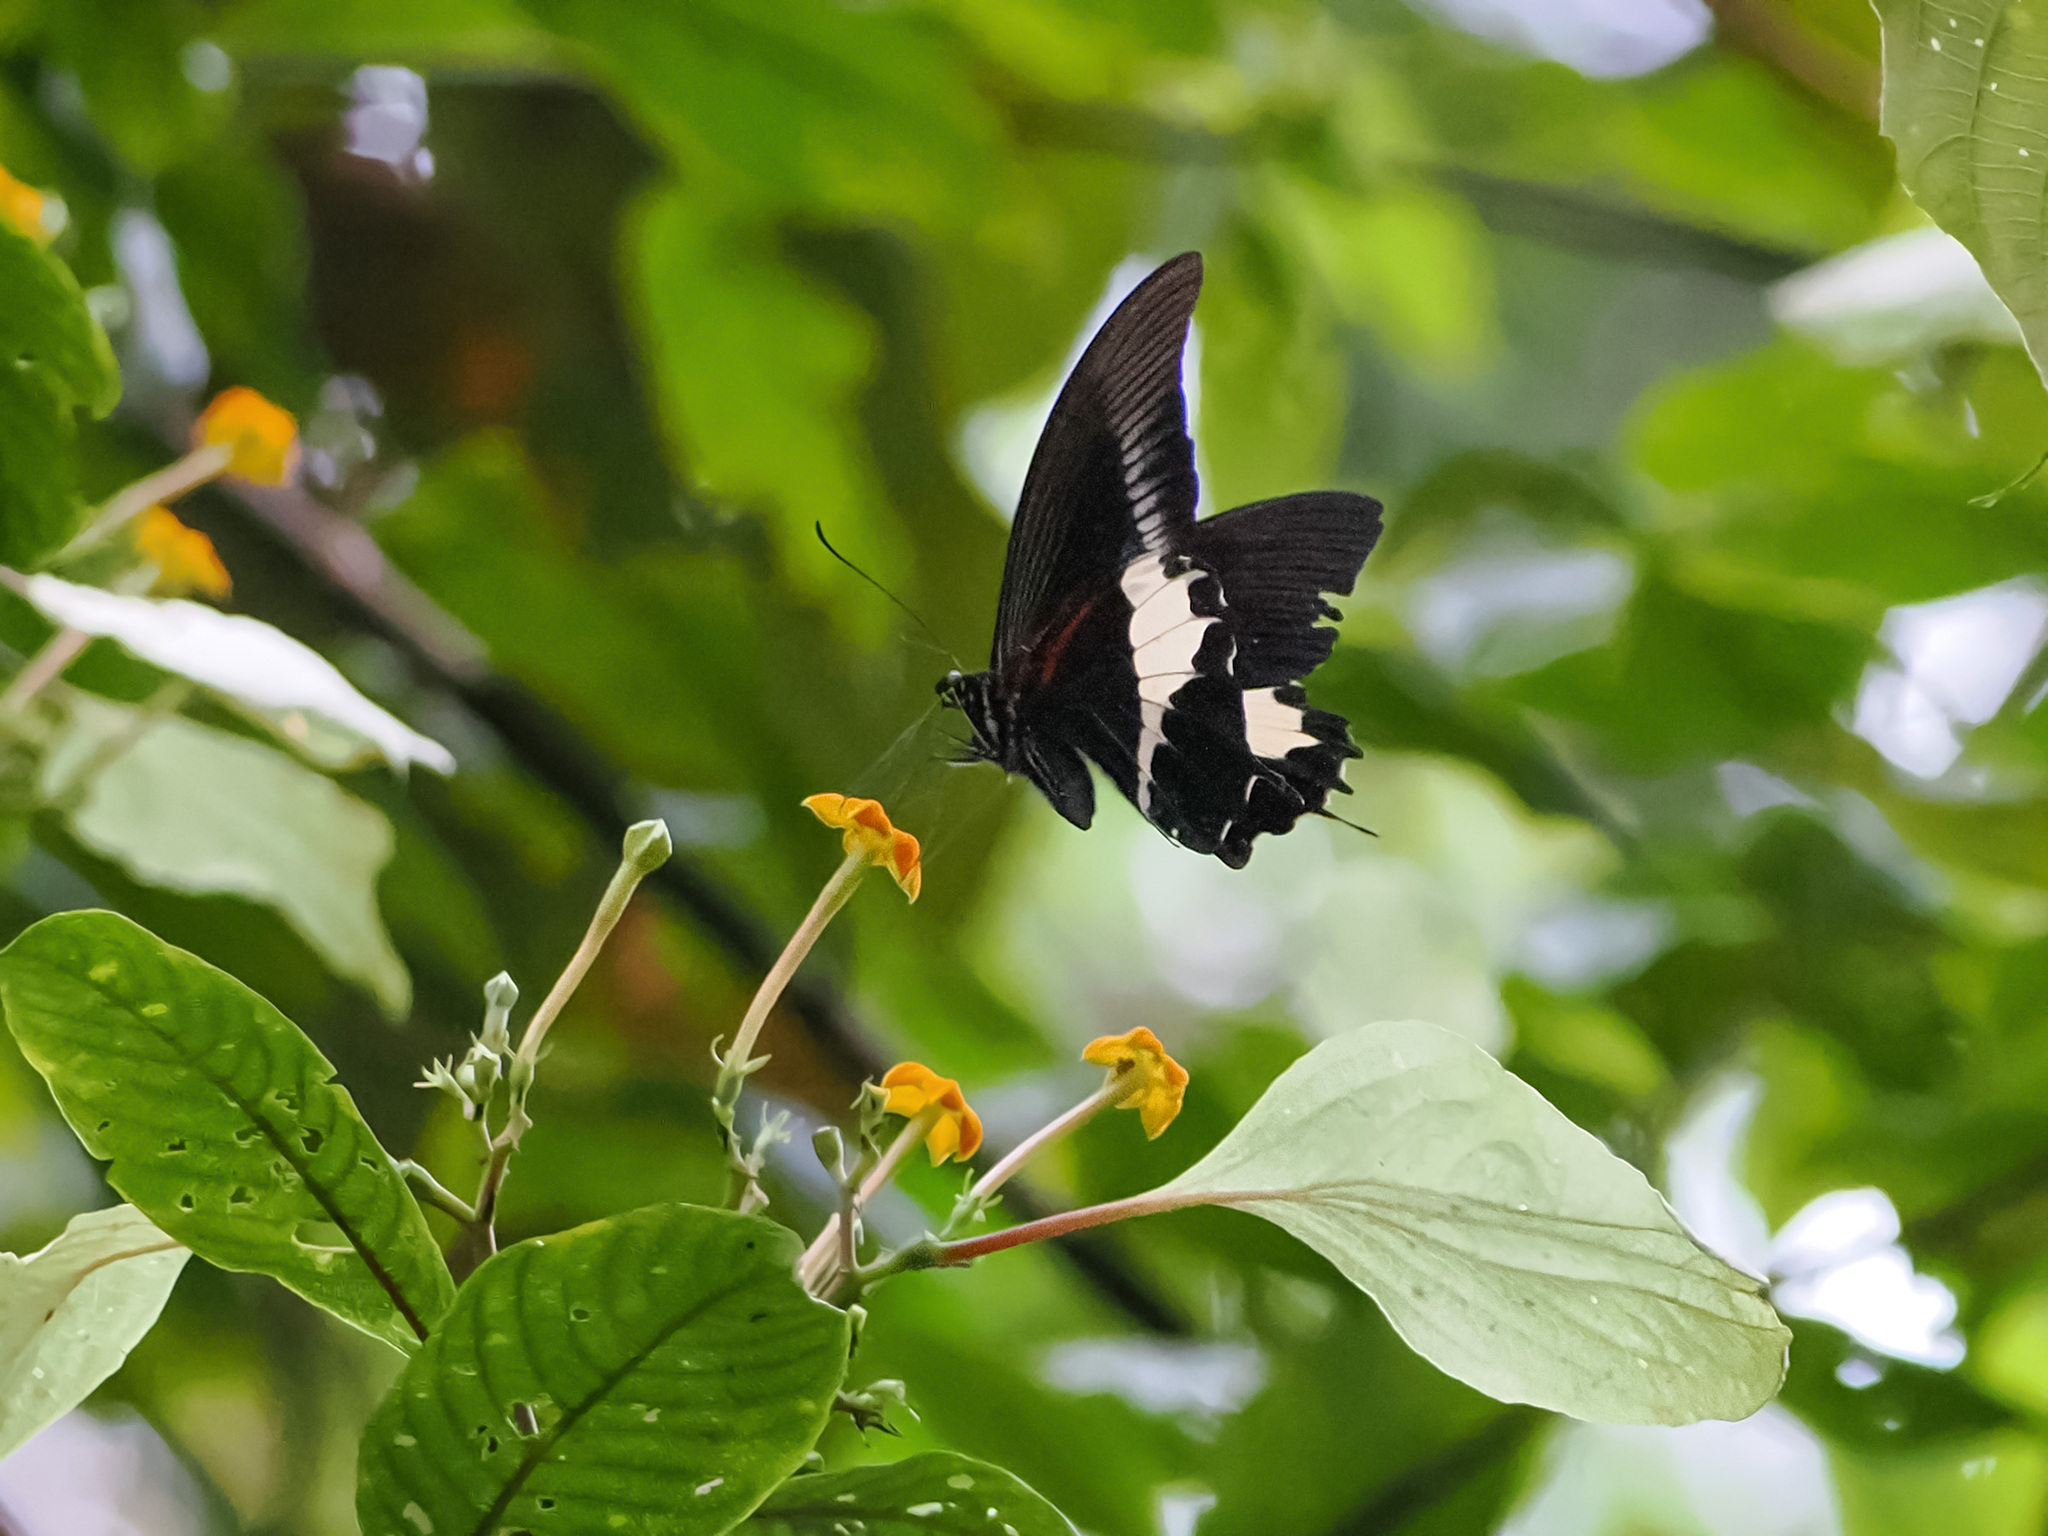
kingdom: Animalia
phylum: Arthropoda
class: Insecta
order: Lepidoptera
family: Papilionidae
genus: Papilio
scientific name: Papilio diophantus
